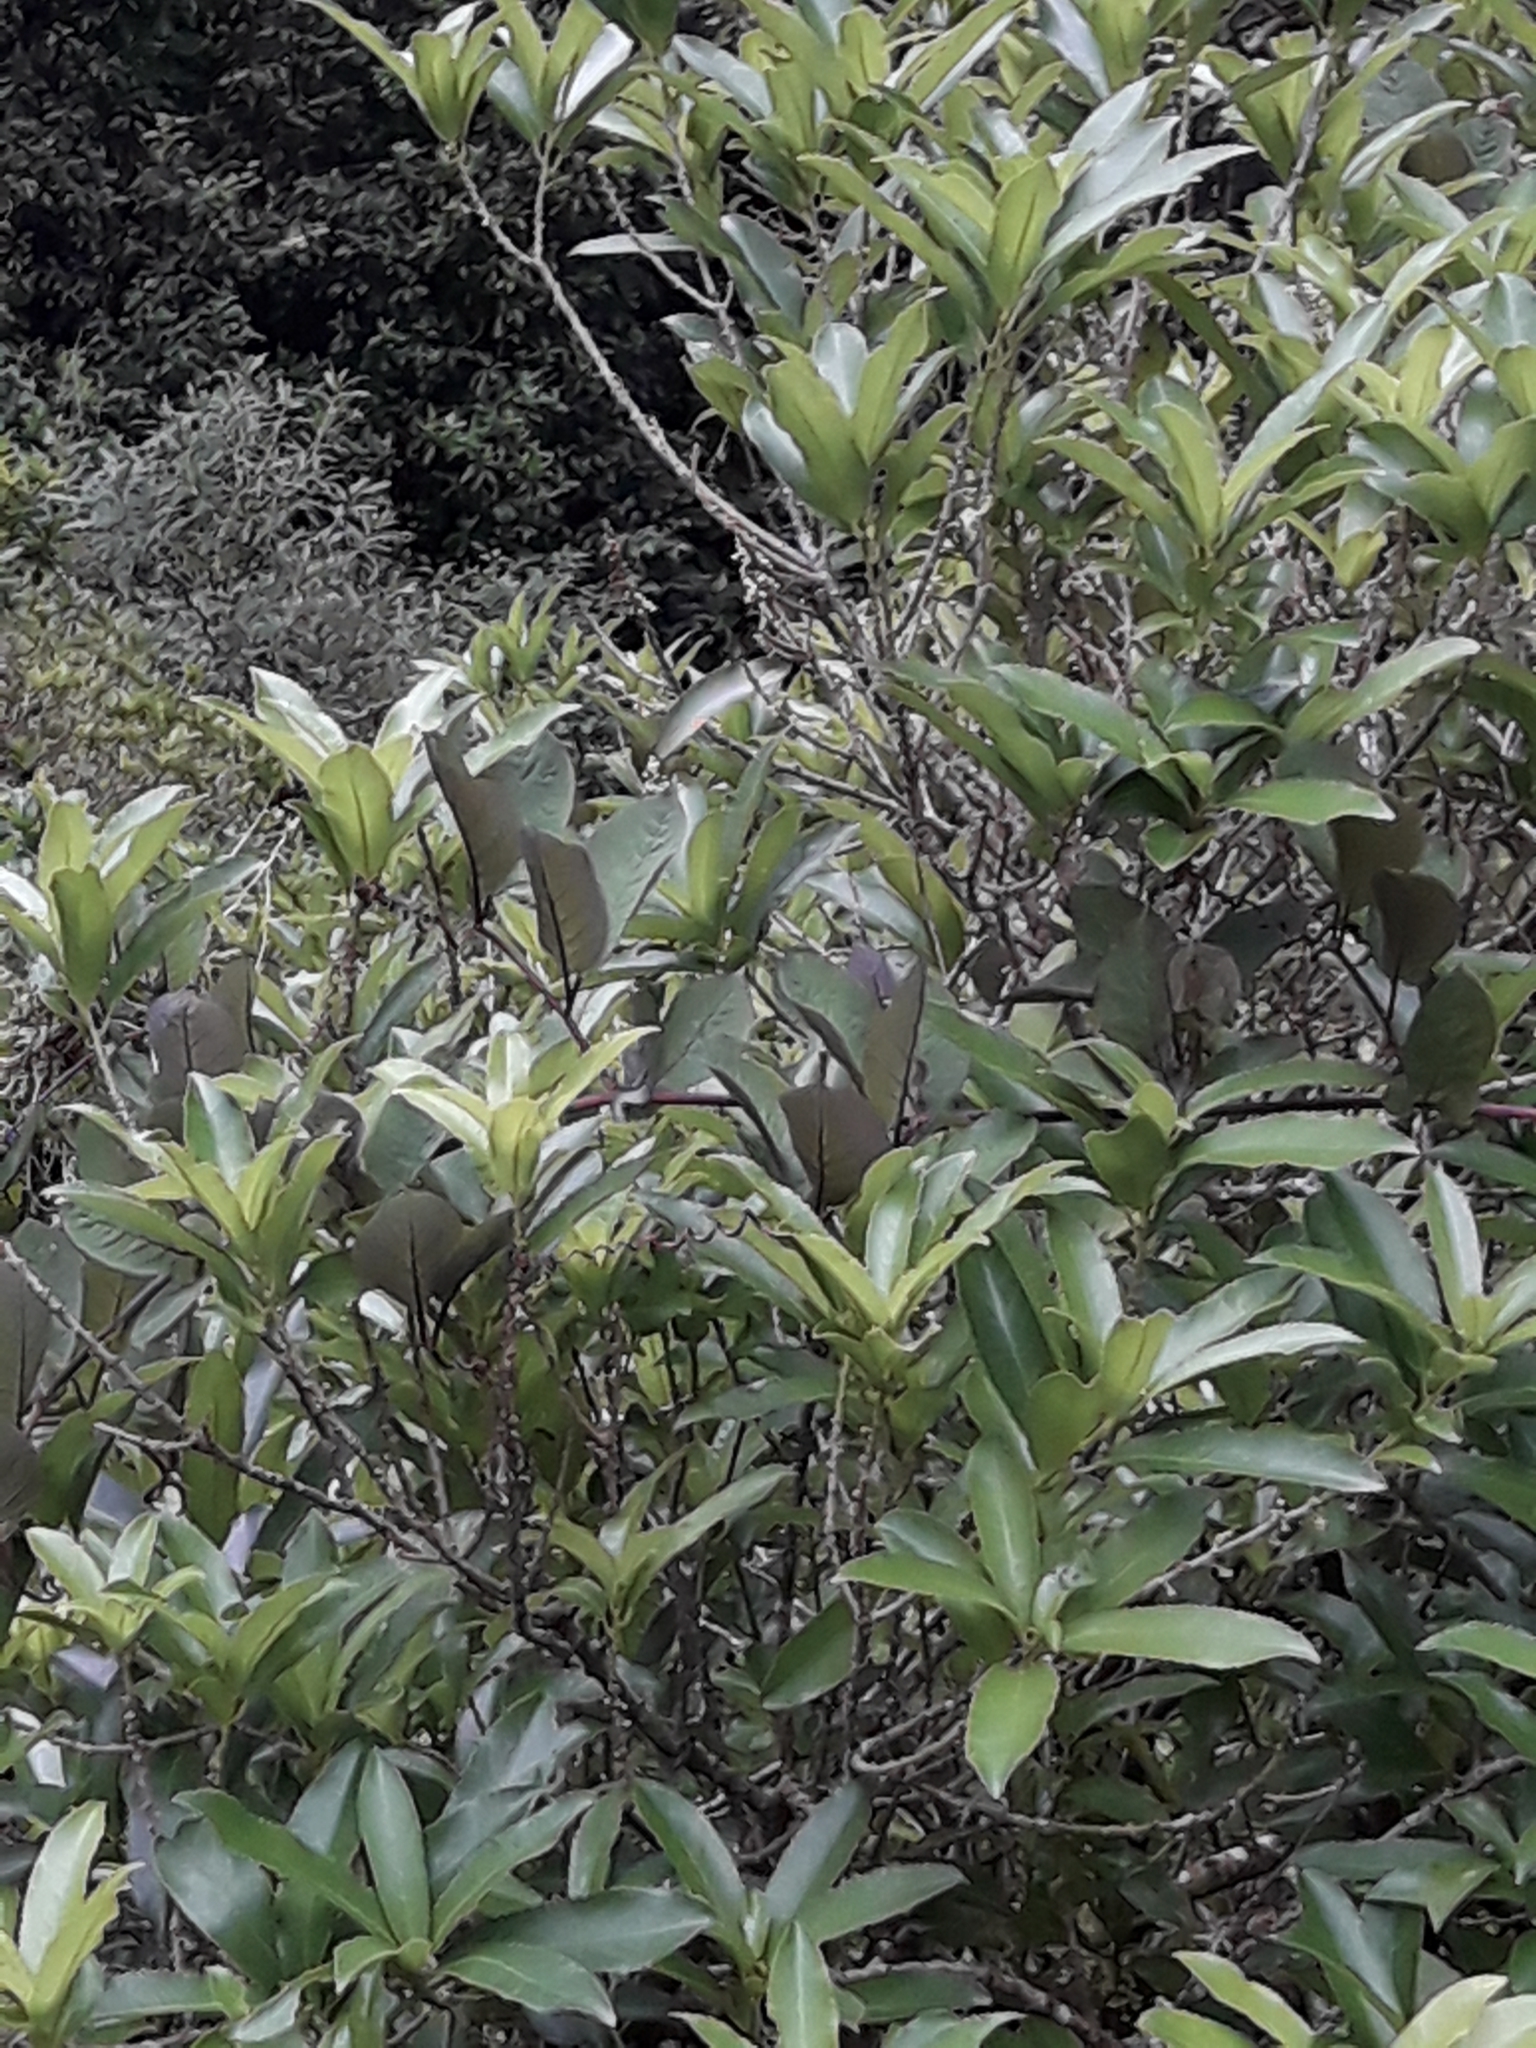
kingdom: Plantae
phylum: Tracheophyta
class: Magnoliopsida
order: Ericales
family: Polemoniaceae
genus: Cobaea
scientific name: Cobaea scandens
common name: Cup-and-saucer-vine
